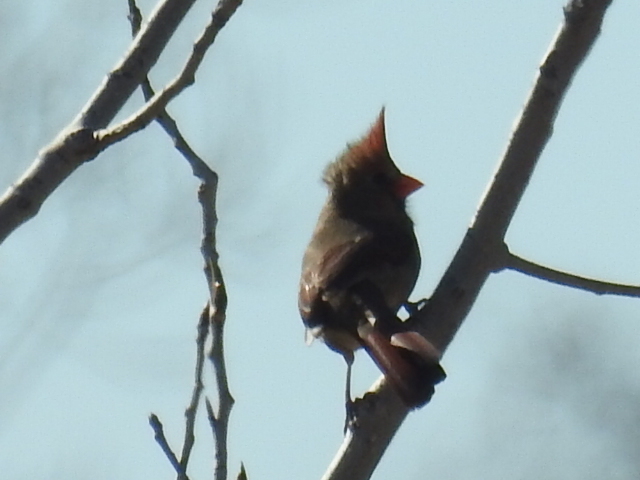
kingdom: Animalia
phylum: Chordata
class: Aves
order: Passeriformes
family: Cardinalidae
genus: Cardinalis
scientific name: Cardinalis cardinalis
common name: Northern cardinal
